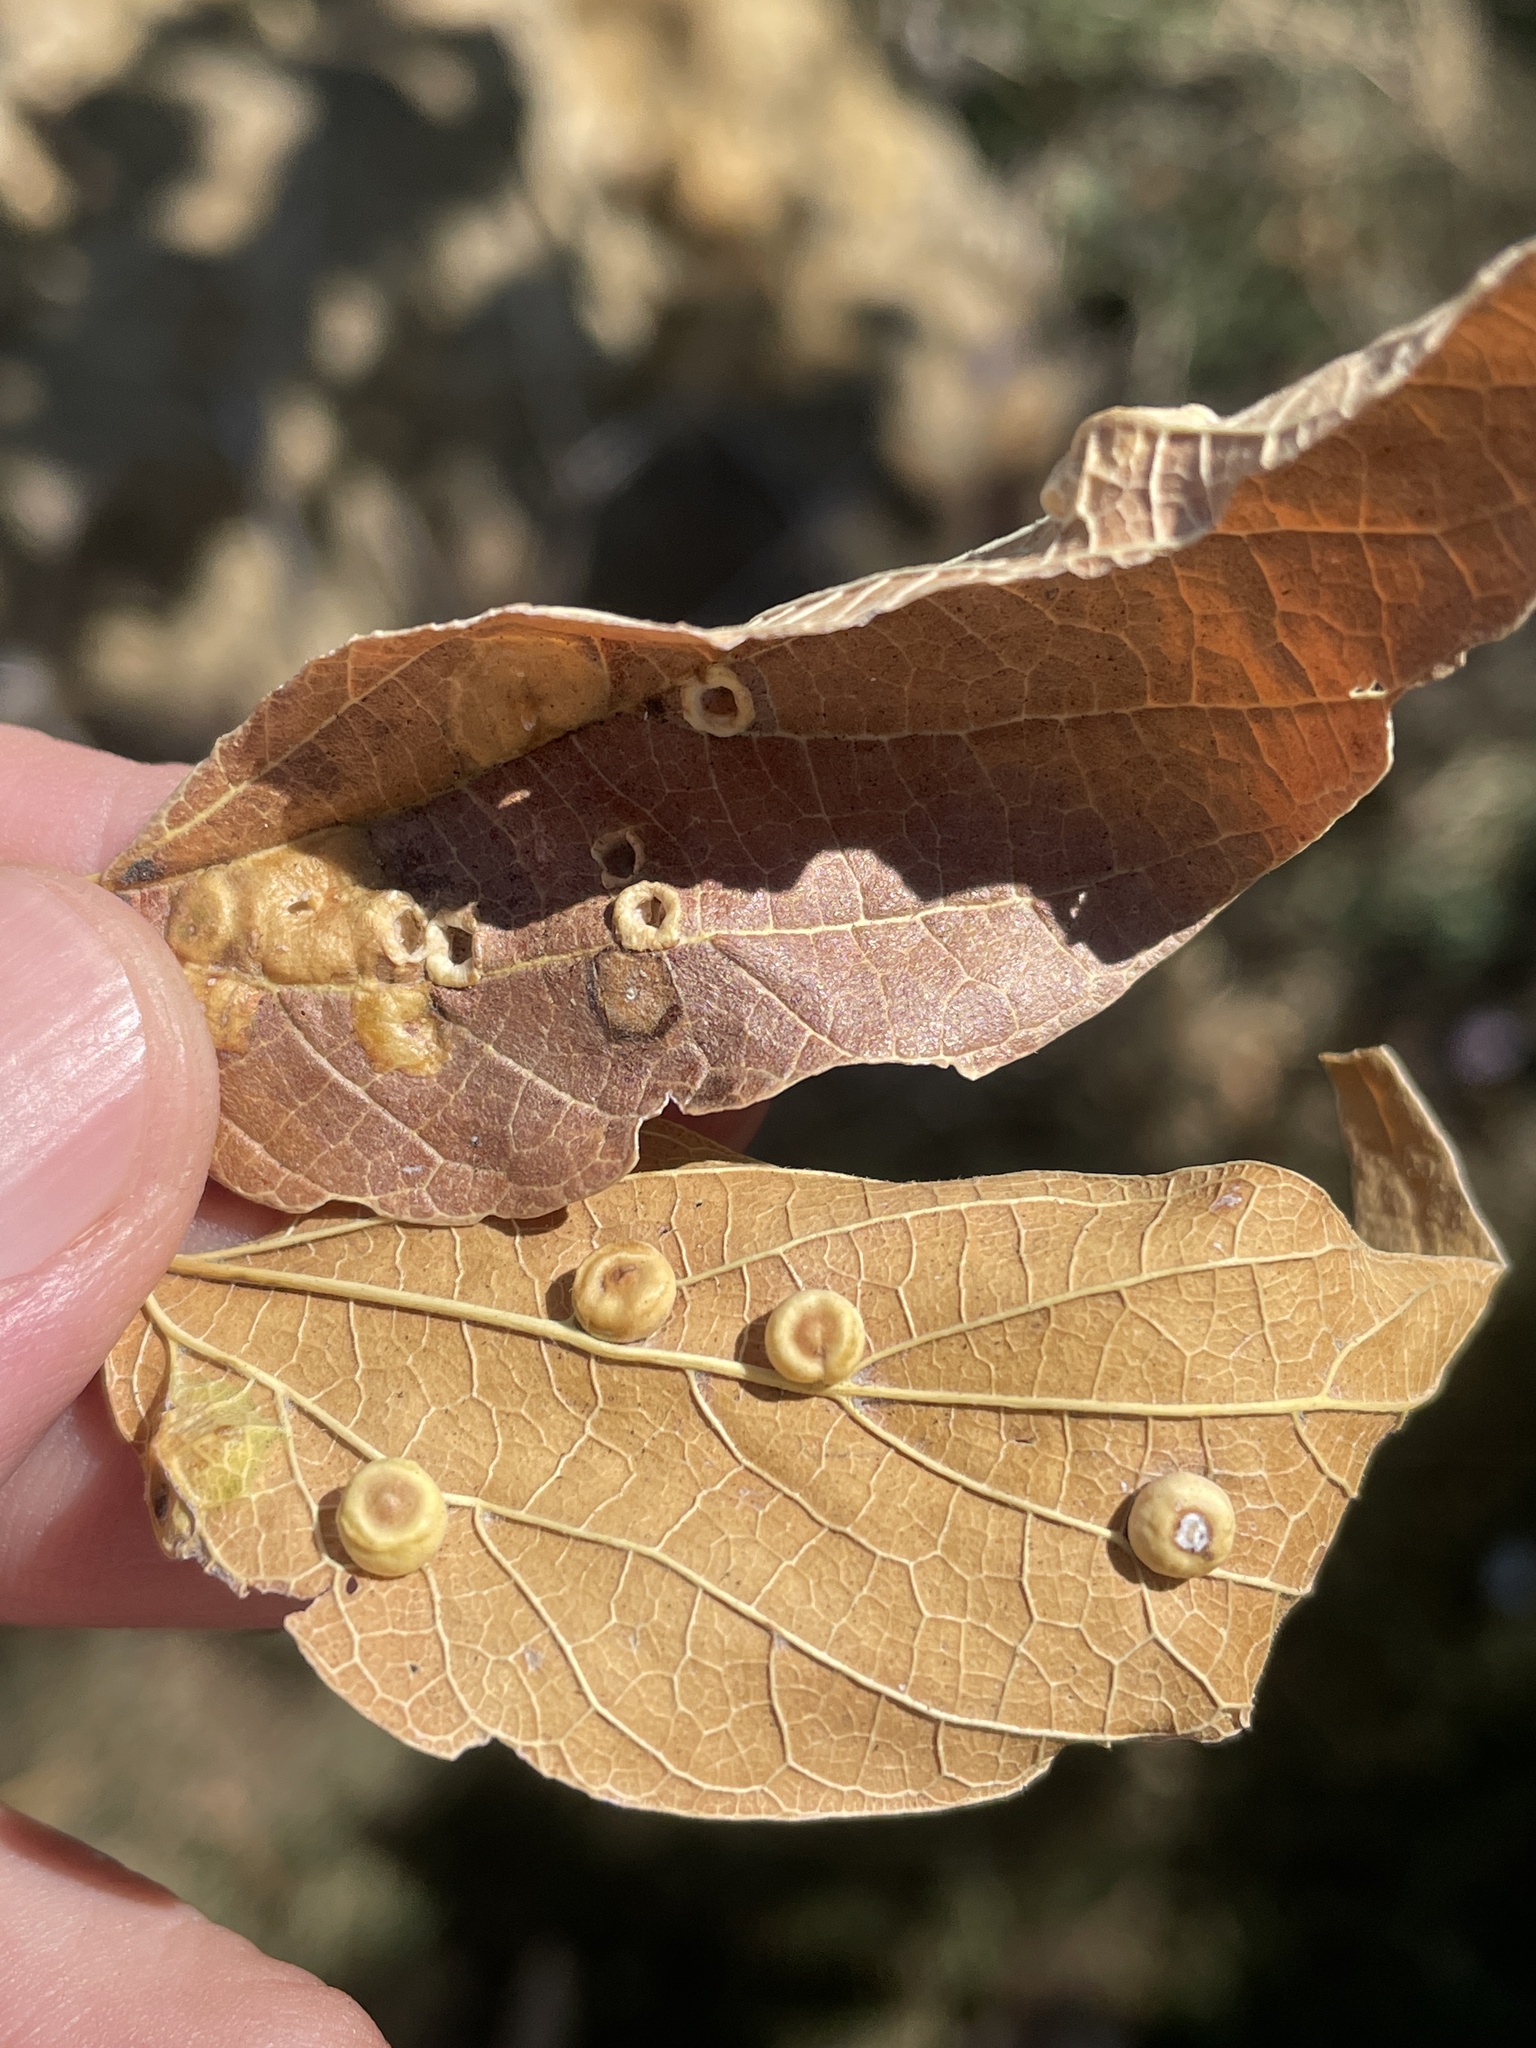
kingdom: Animalia
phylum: Arthropoda
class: Insecta
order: Hemiptera
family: Aphalaridae
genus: Pachypsylla
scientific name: Pachypsylla celtidismamma
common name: Hackberry nipplegall psyllid
